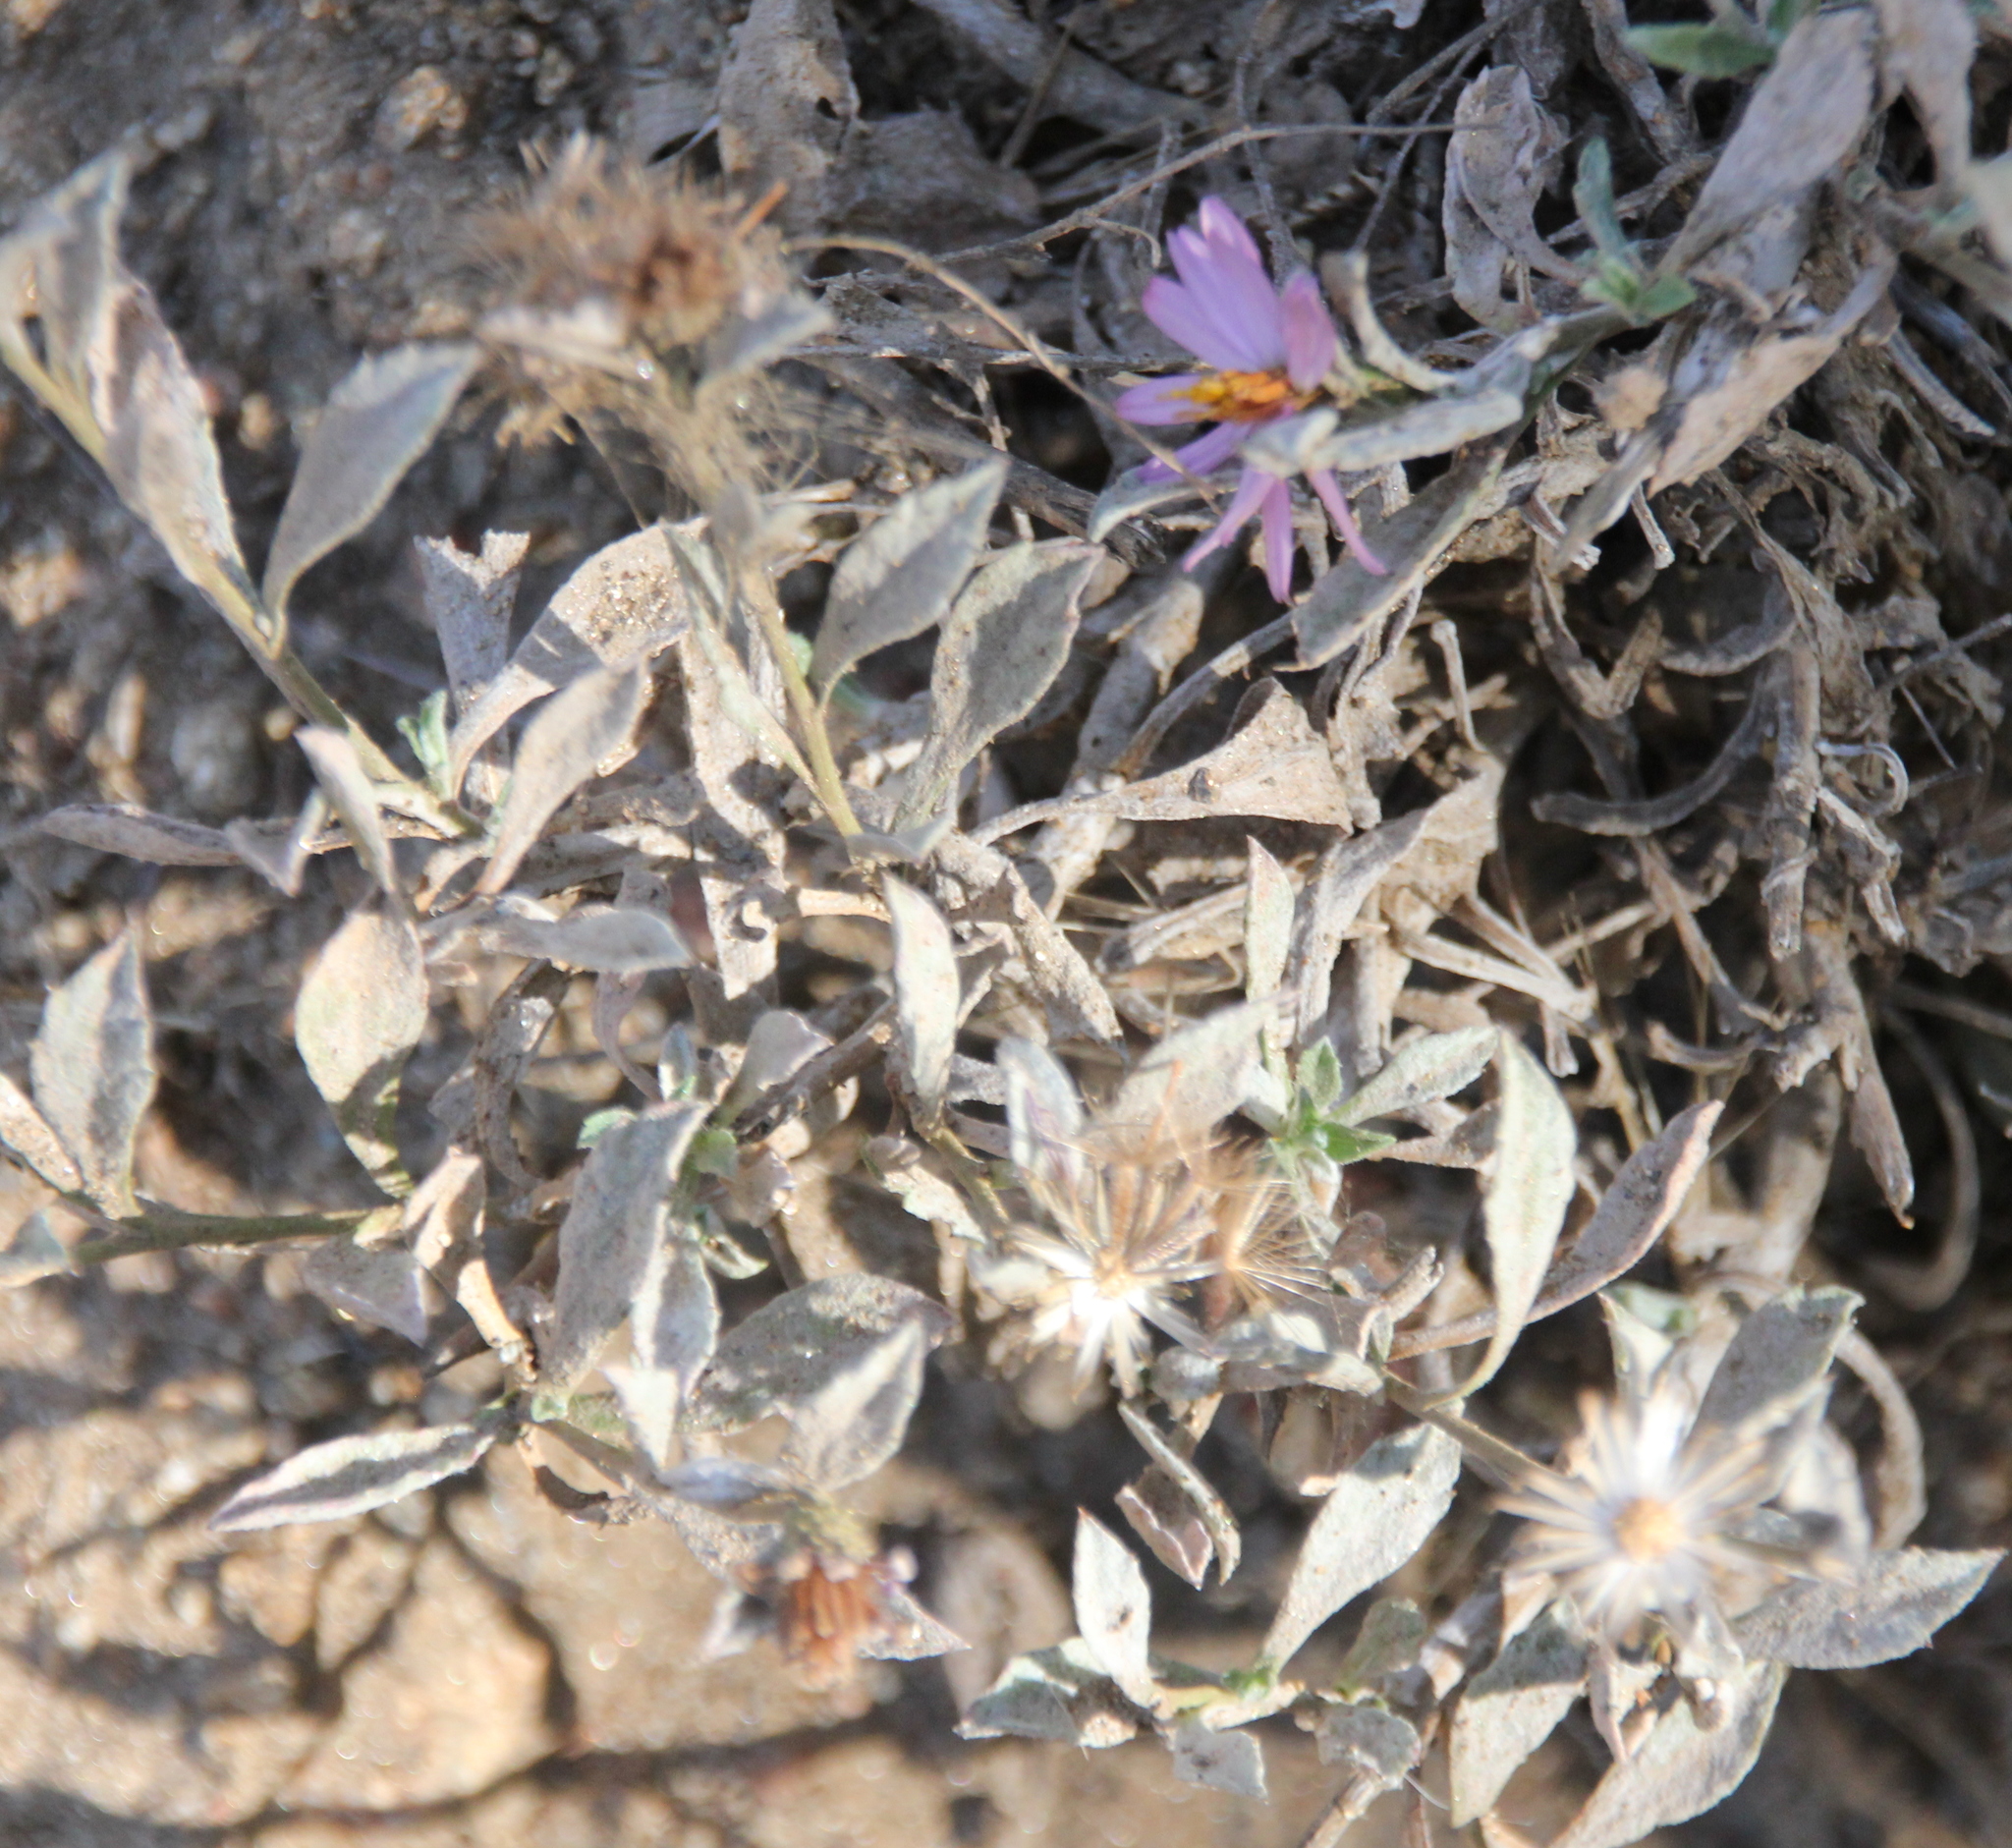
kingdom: Plantae
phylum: Tracheophyta
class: Magnoliopsida
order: Asterales
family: Asteraceae
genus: Corethrogyne
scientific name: Corethrogyne filaginifolia
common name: Sand-aster
